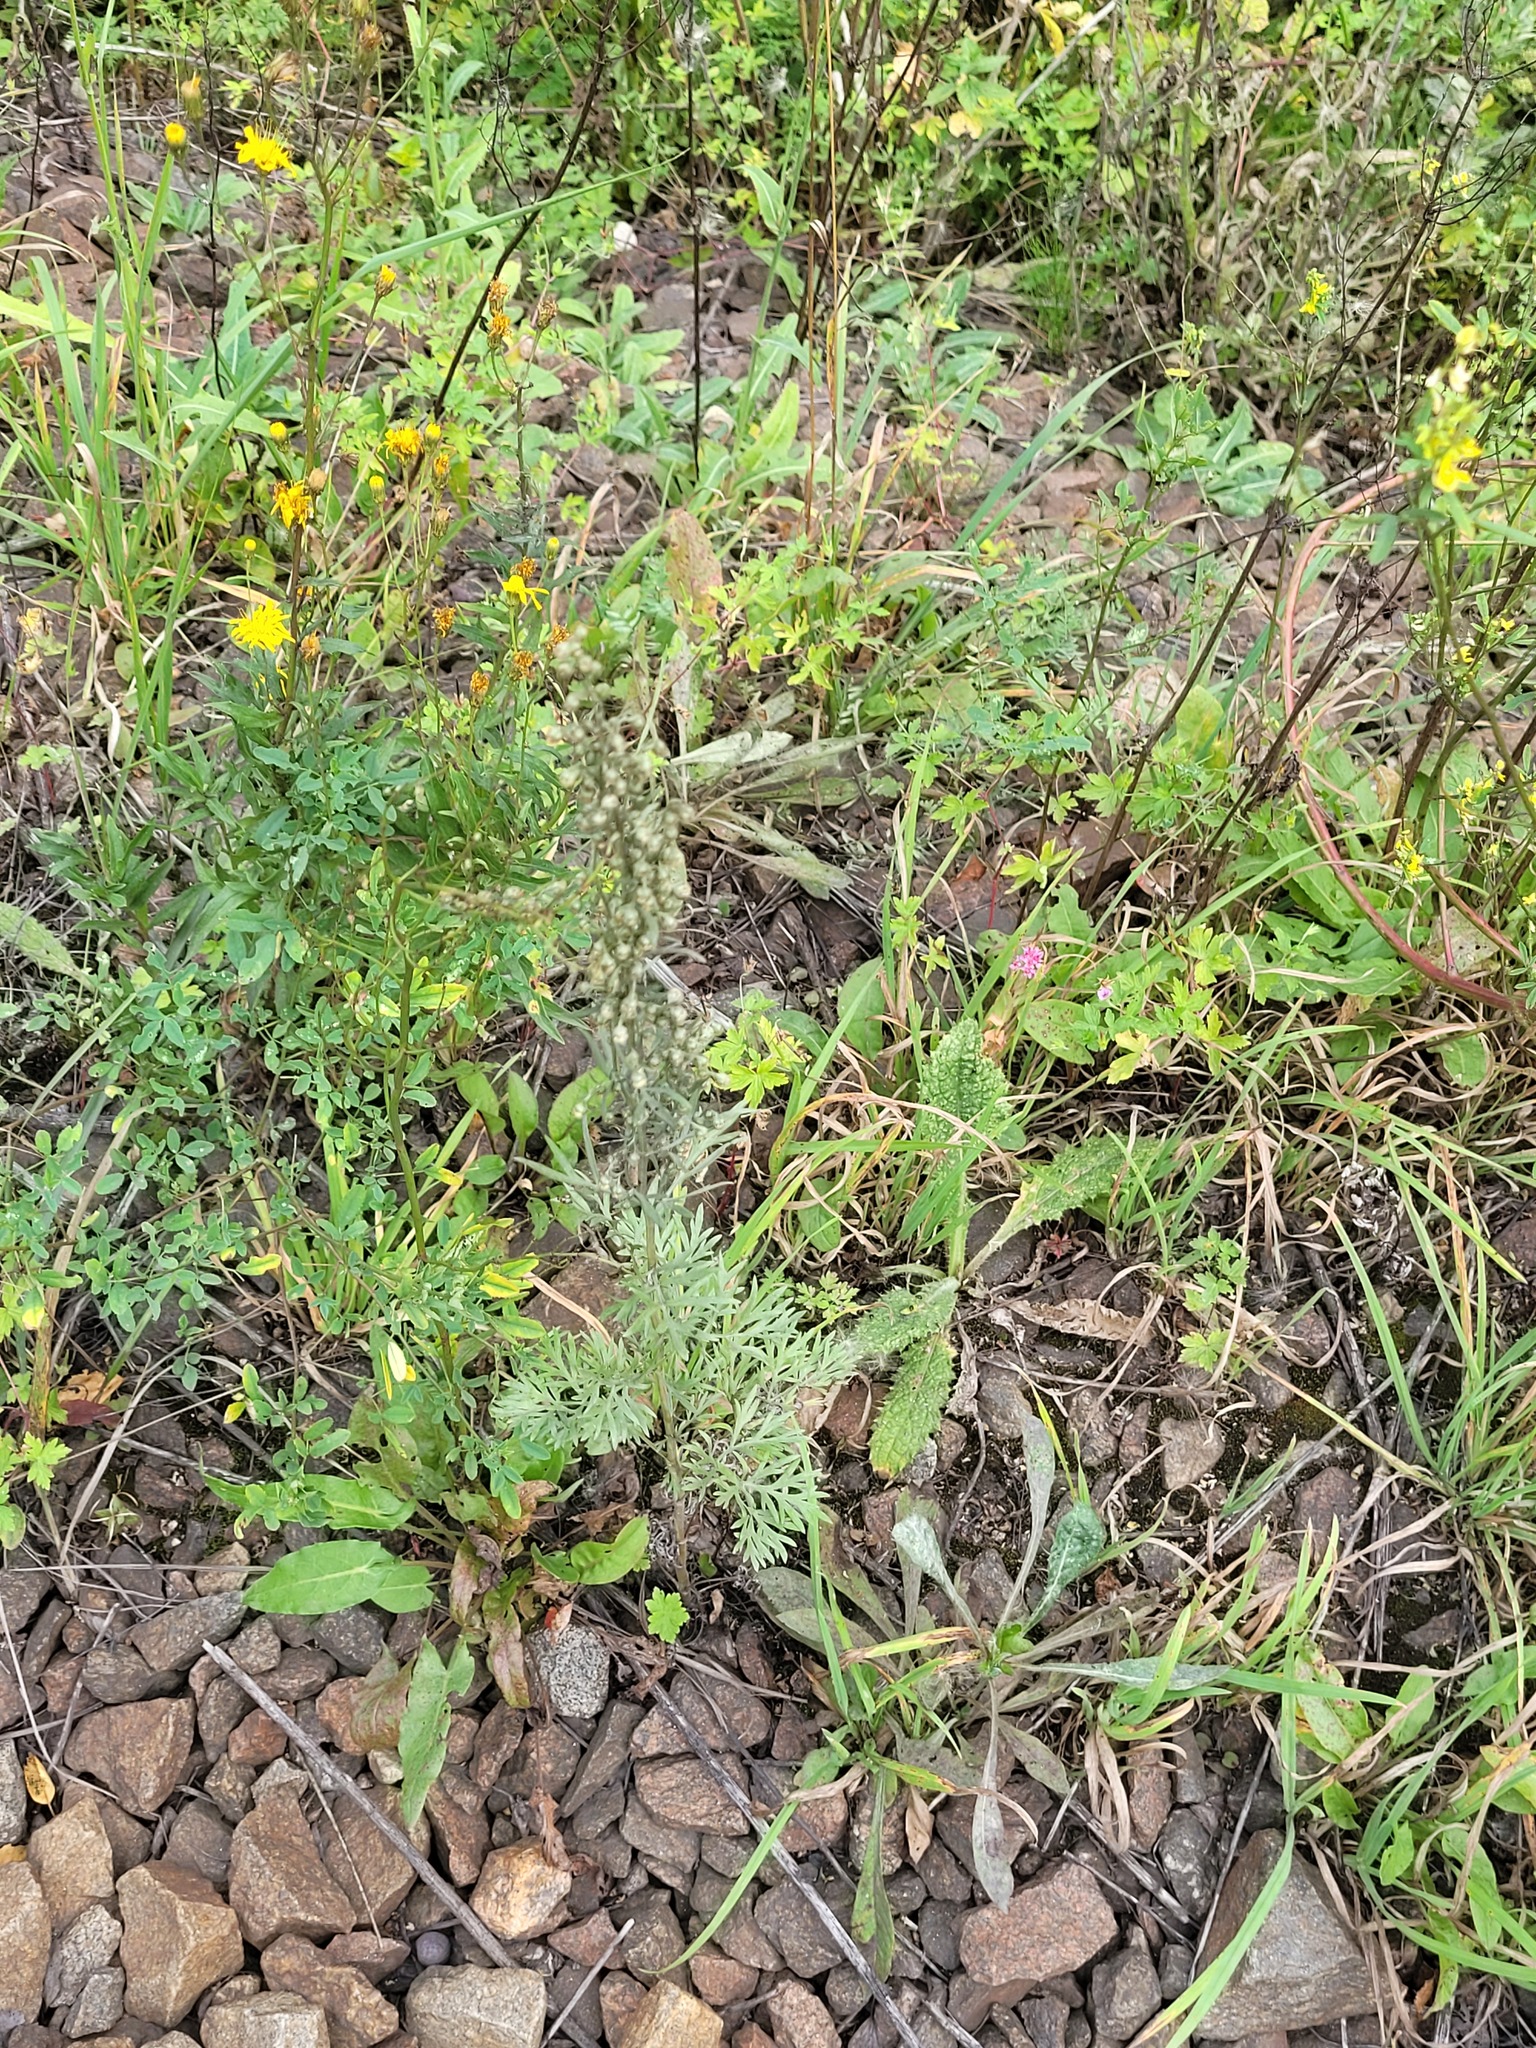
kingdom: Plantae
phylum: Tracheophyta
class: Magnoliopsida
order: Asterales
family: Asteraceae
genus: Artemisia
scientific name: Artemisia absinthium
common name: Wormwood
